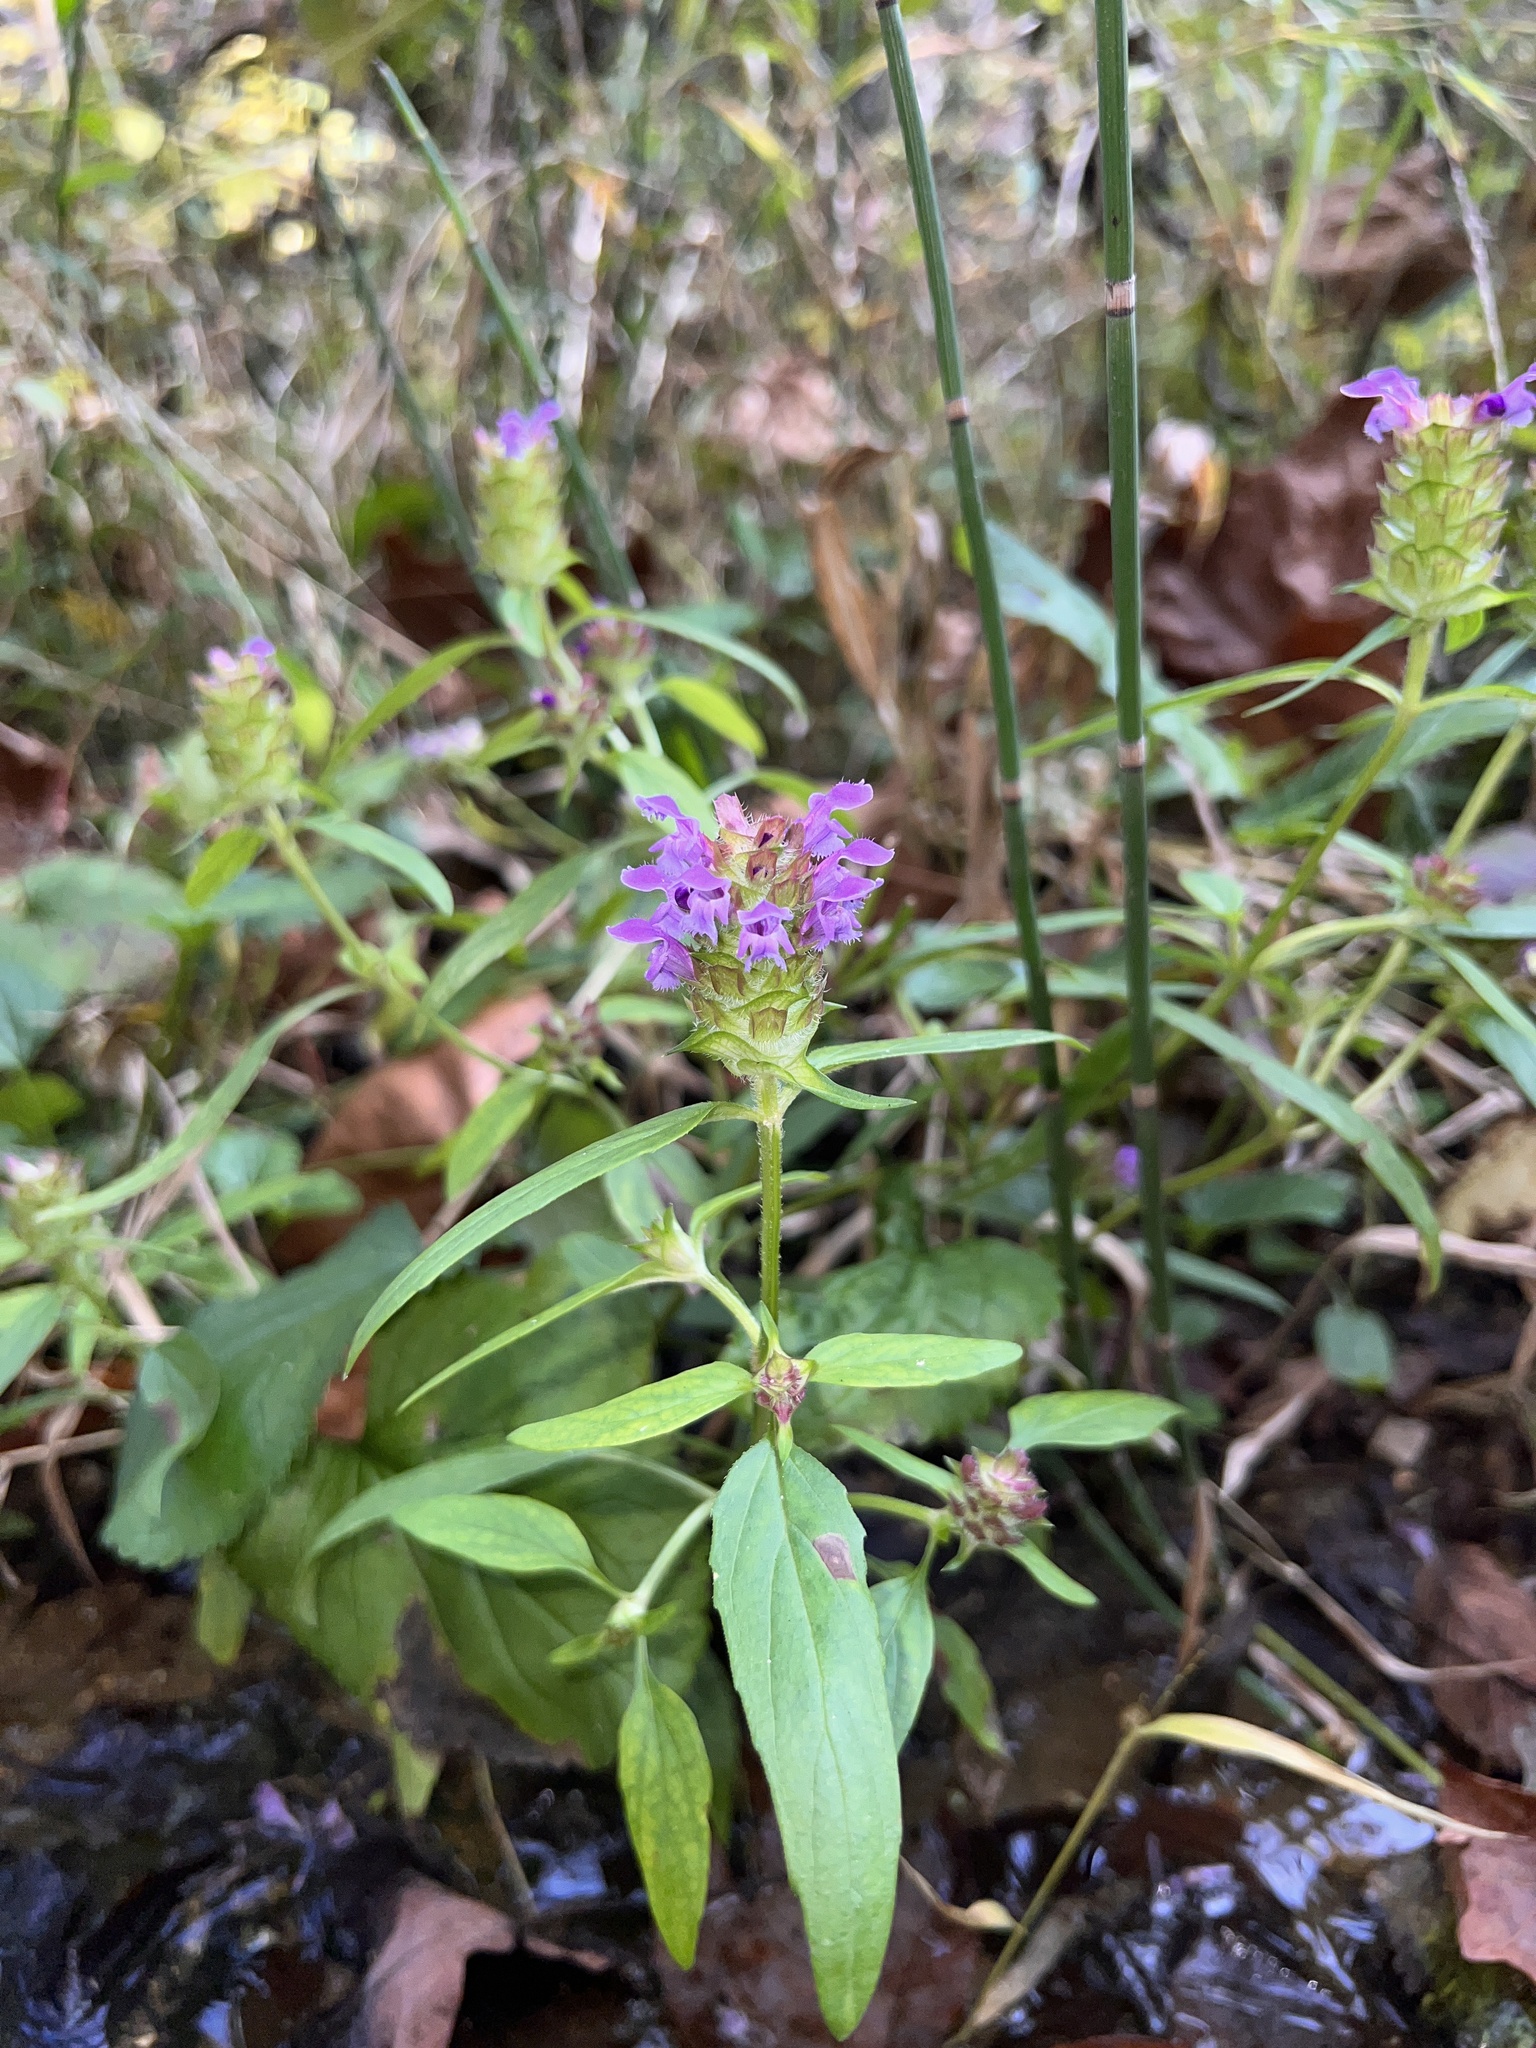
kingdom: Plantae
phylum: Tracheophyta
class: Magnoliopsida
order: Lamiales
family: Lamiaceae
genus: Prunella
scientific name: Prunella vulgaris
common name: Heal-all
